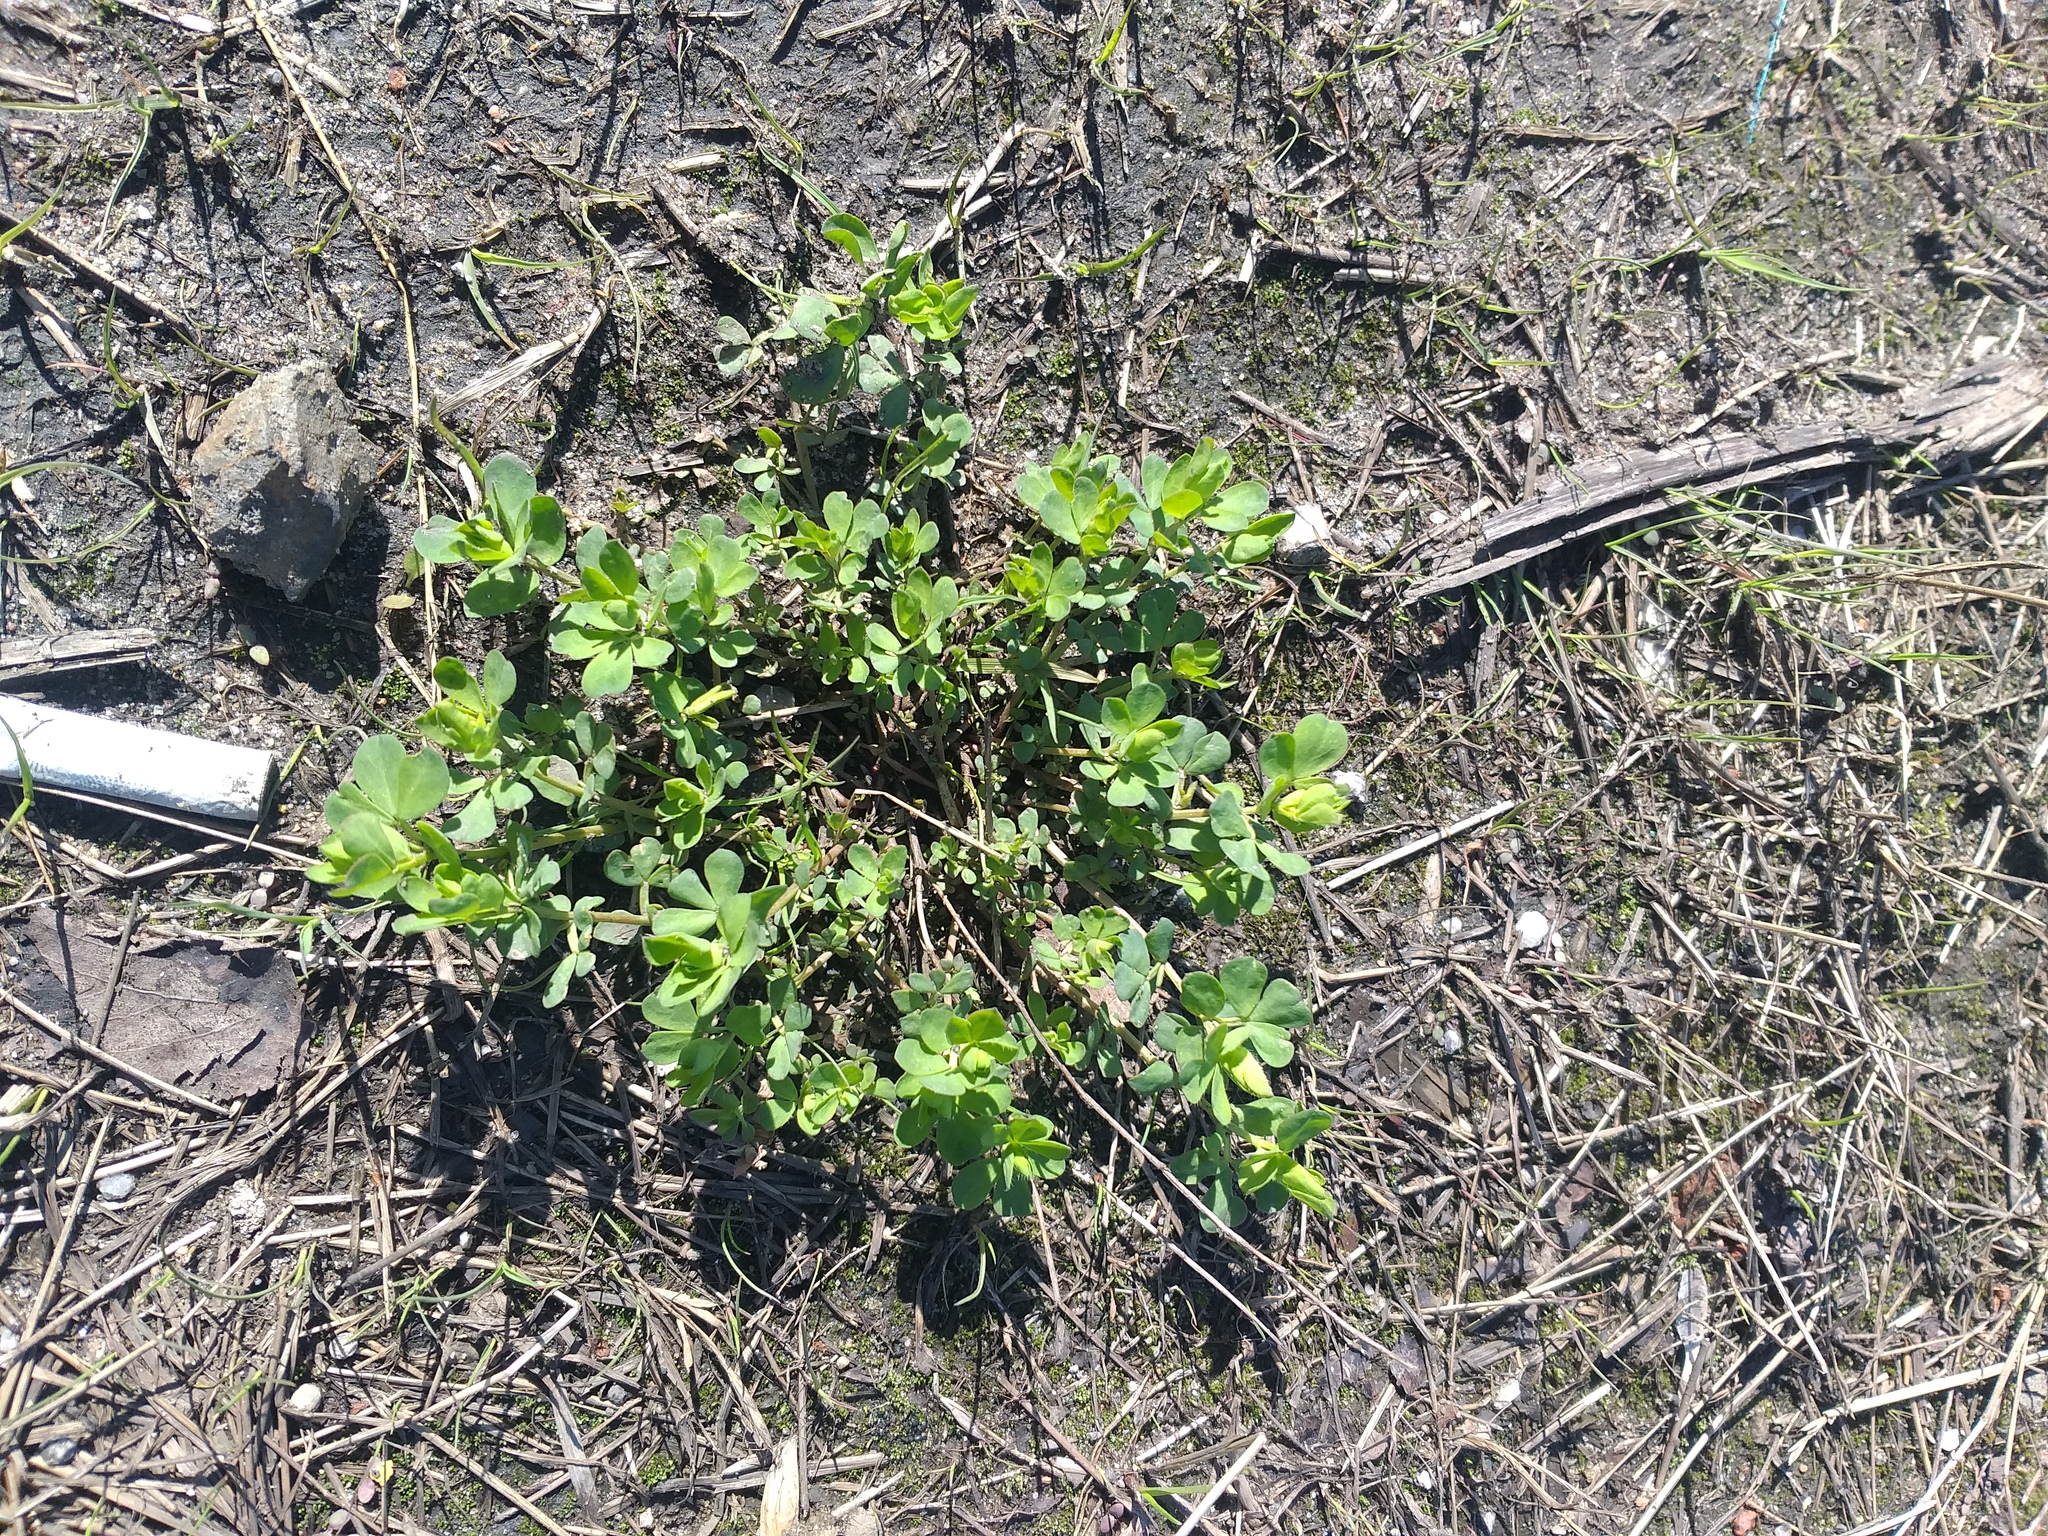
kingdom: Plantae
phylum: Tracheophyta
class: Magnoliopsida
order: Fabales
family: Fabaceae
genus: Lotus
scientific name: Lotus corniculatus
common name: Common bird's-foot-trefoil
